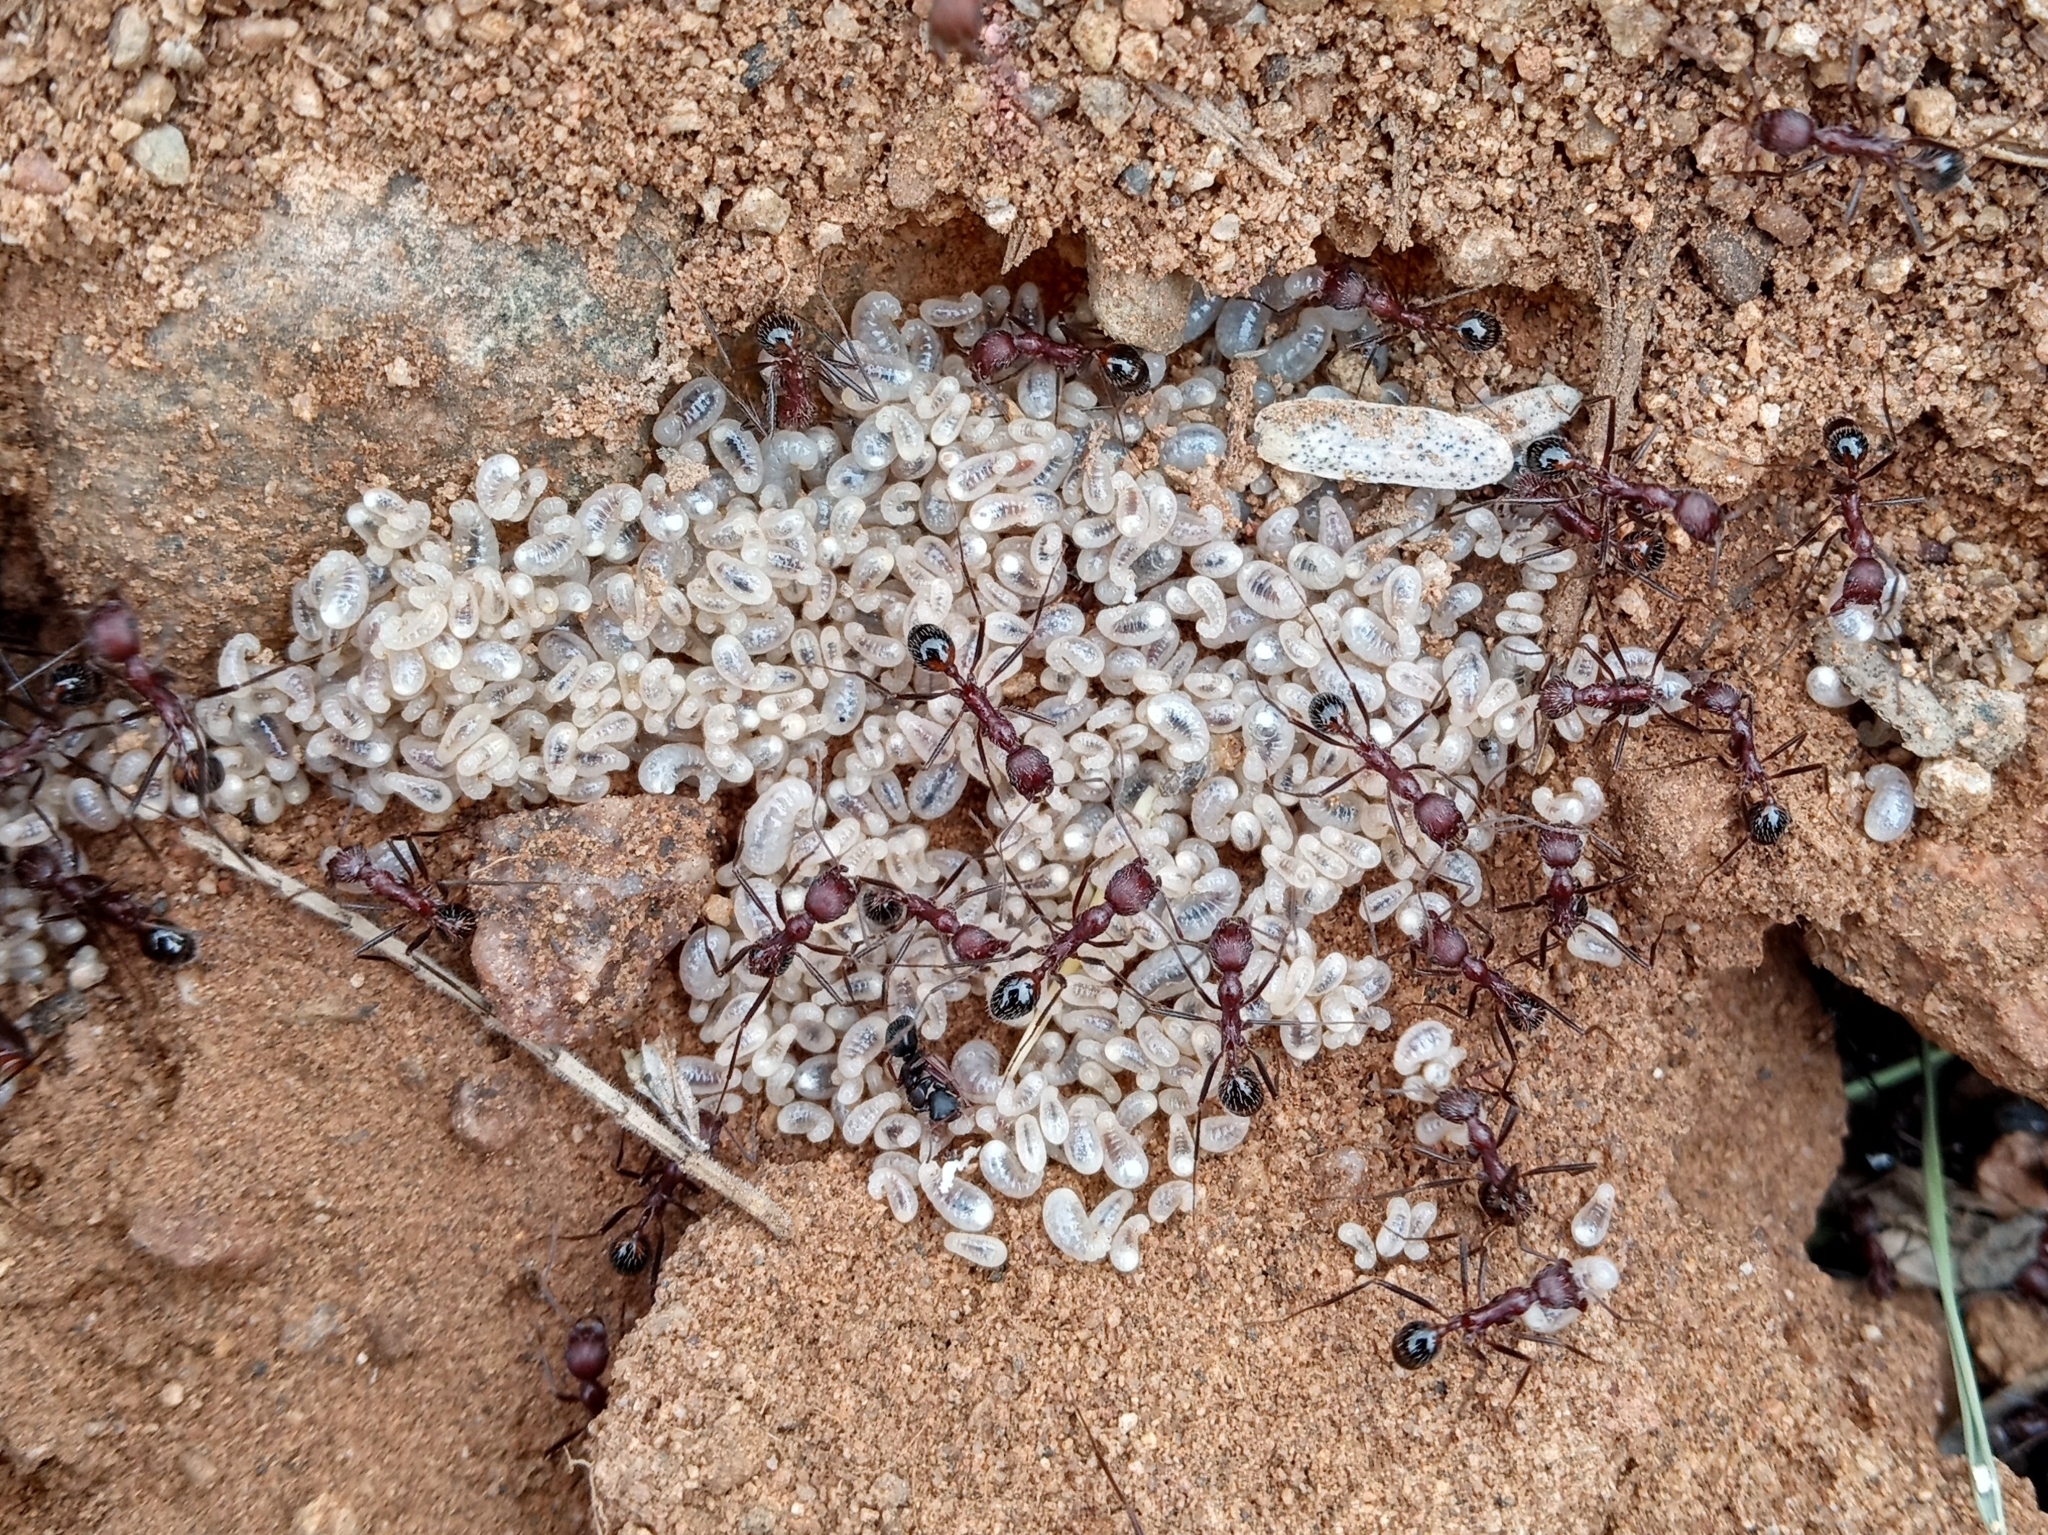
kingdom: Animalia
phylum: Arthropoda
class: Insecta
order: Hymenoptera
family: Formicidae
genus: Novomessor
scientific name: Novomessor albisetosa
